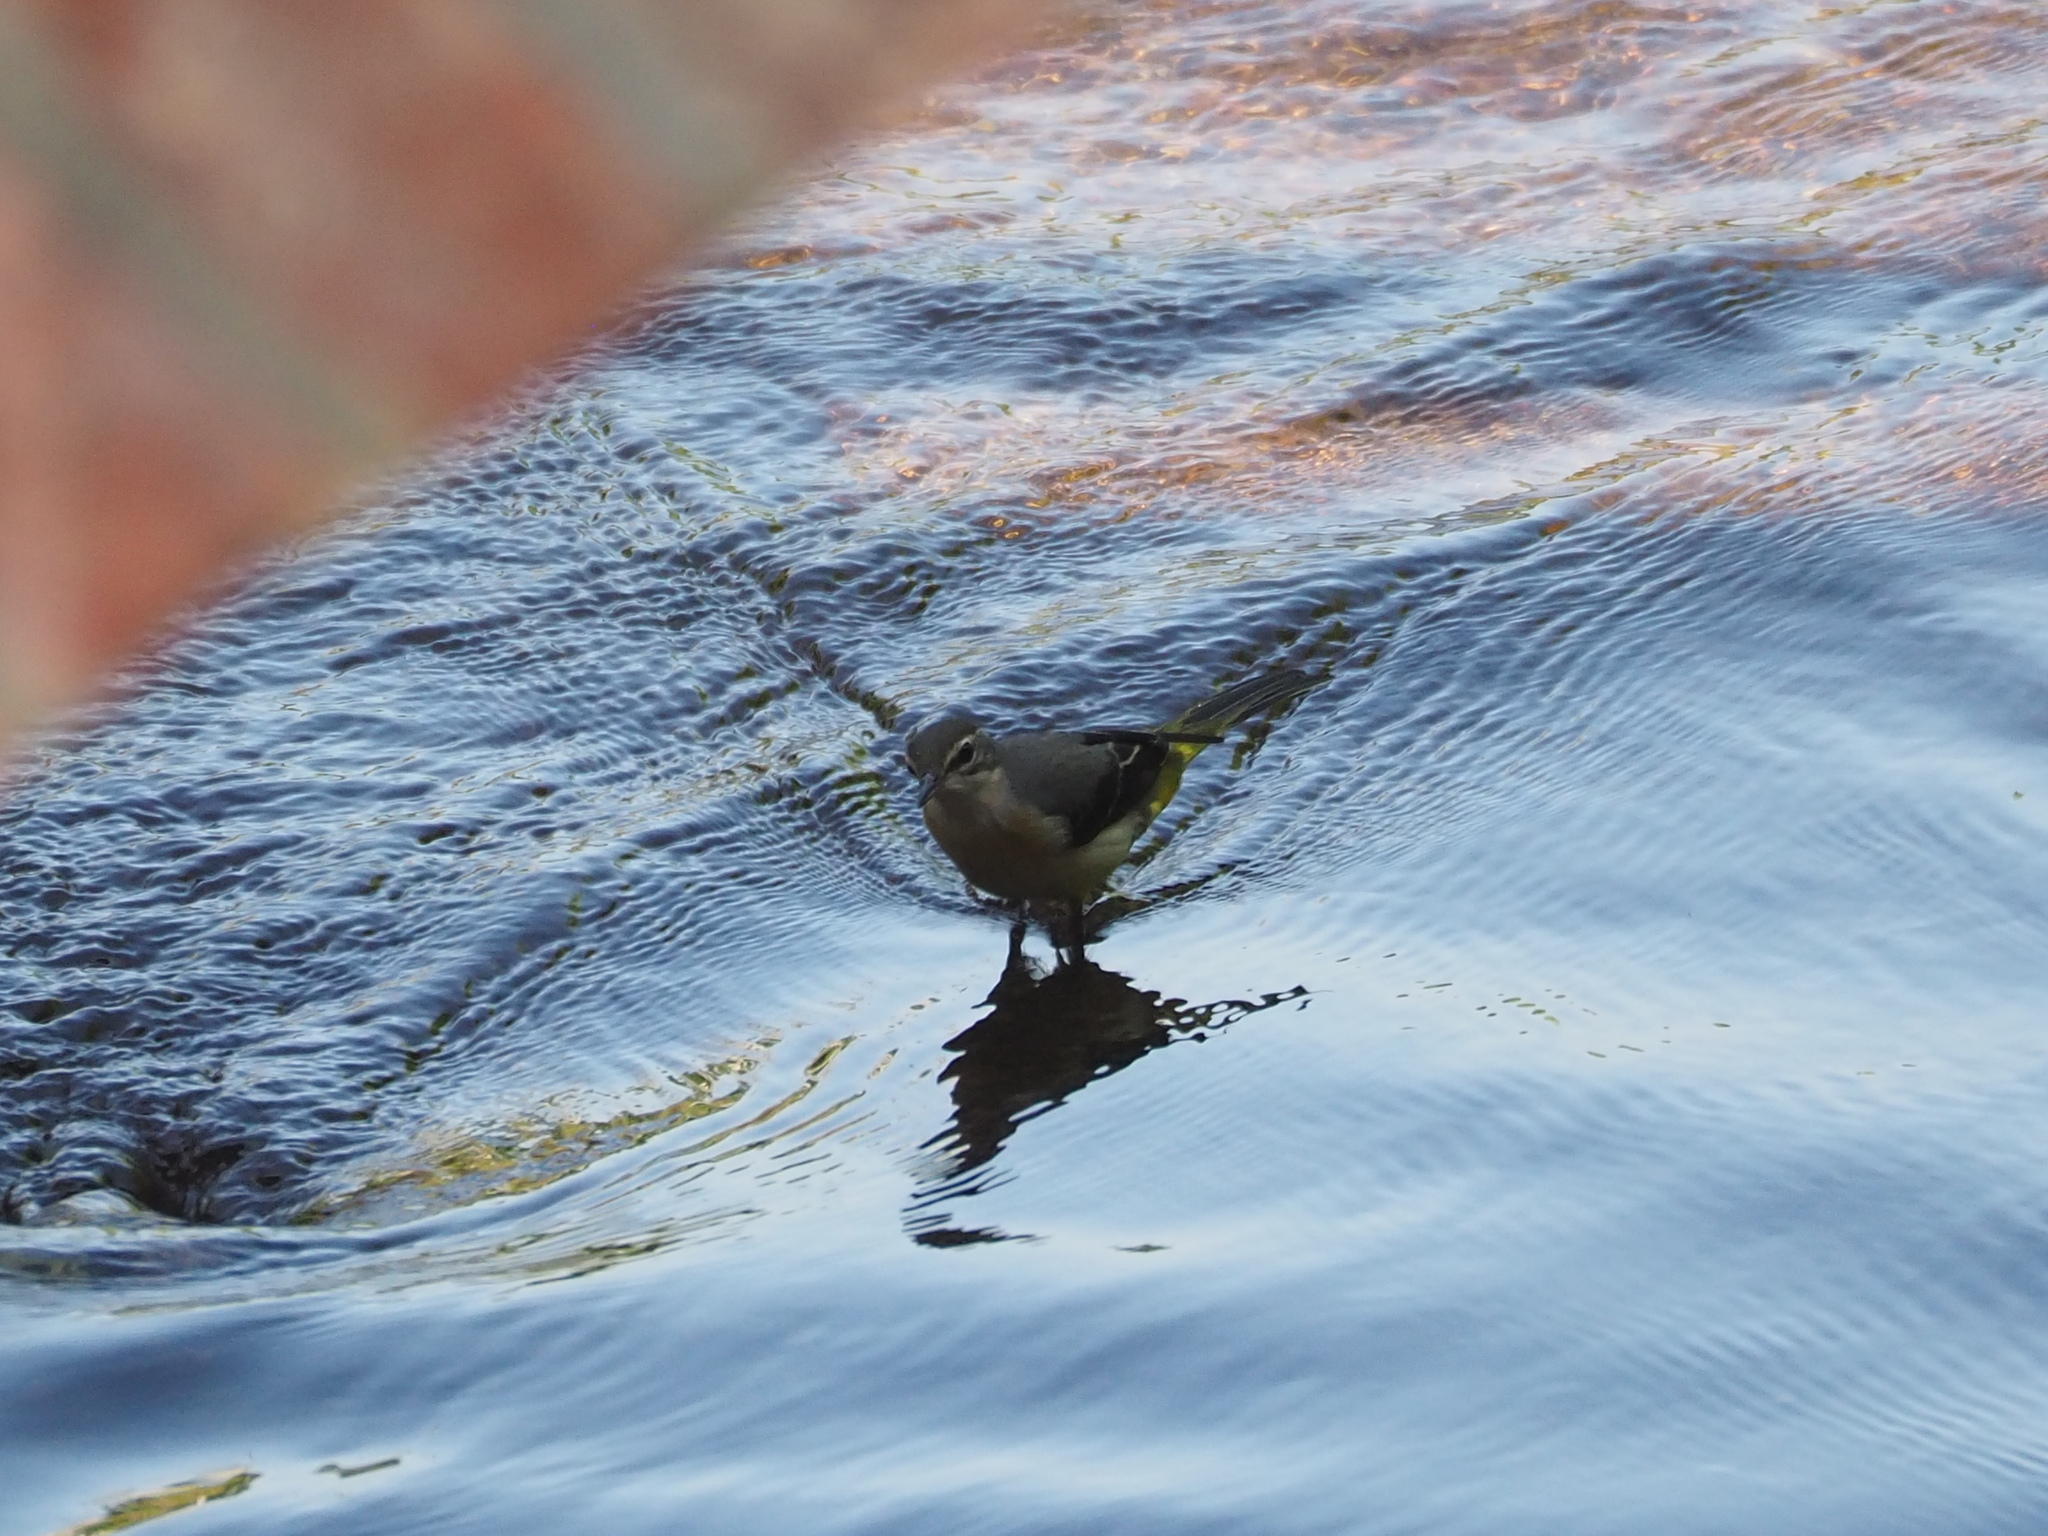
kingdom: Animalia
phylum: Chordata
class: Aves
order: Passeriformes
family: Motacillidae
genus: Motacilla
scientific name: Motacilla cinerea
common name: Grey wagtail
